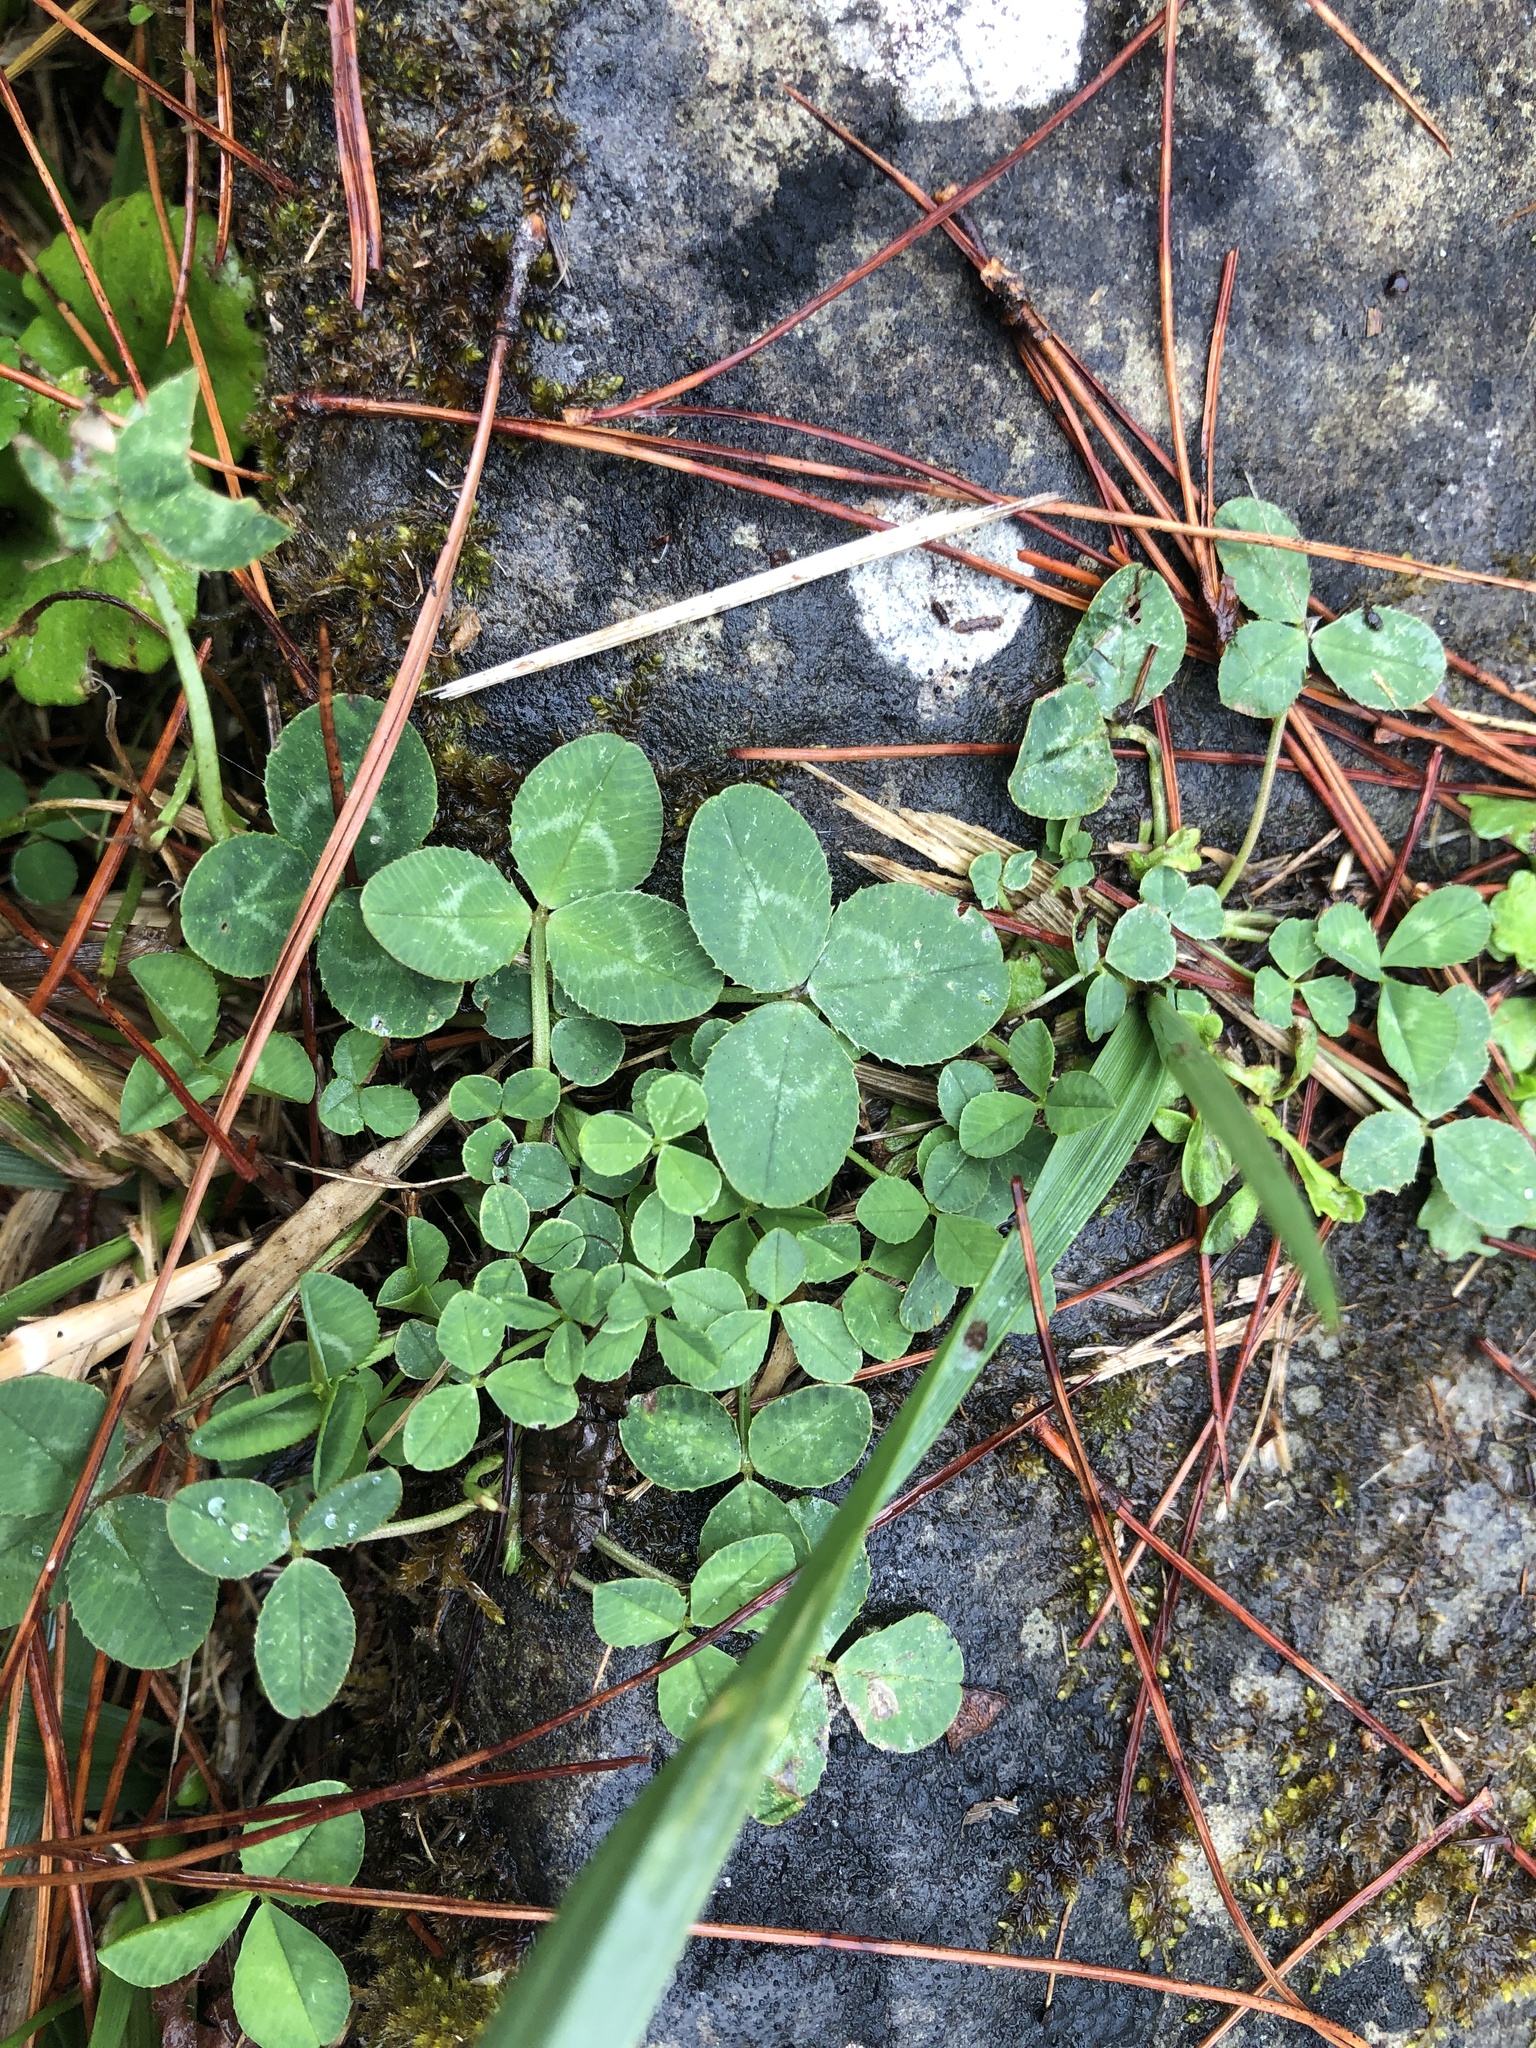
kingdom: Plantae
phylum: Tracheophyta
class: Magnoliopsida
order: Fabales
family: Fabaceae
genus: Trifolium
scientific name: Trifolium repens
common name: White clover
